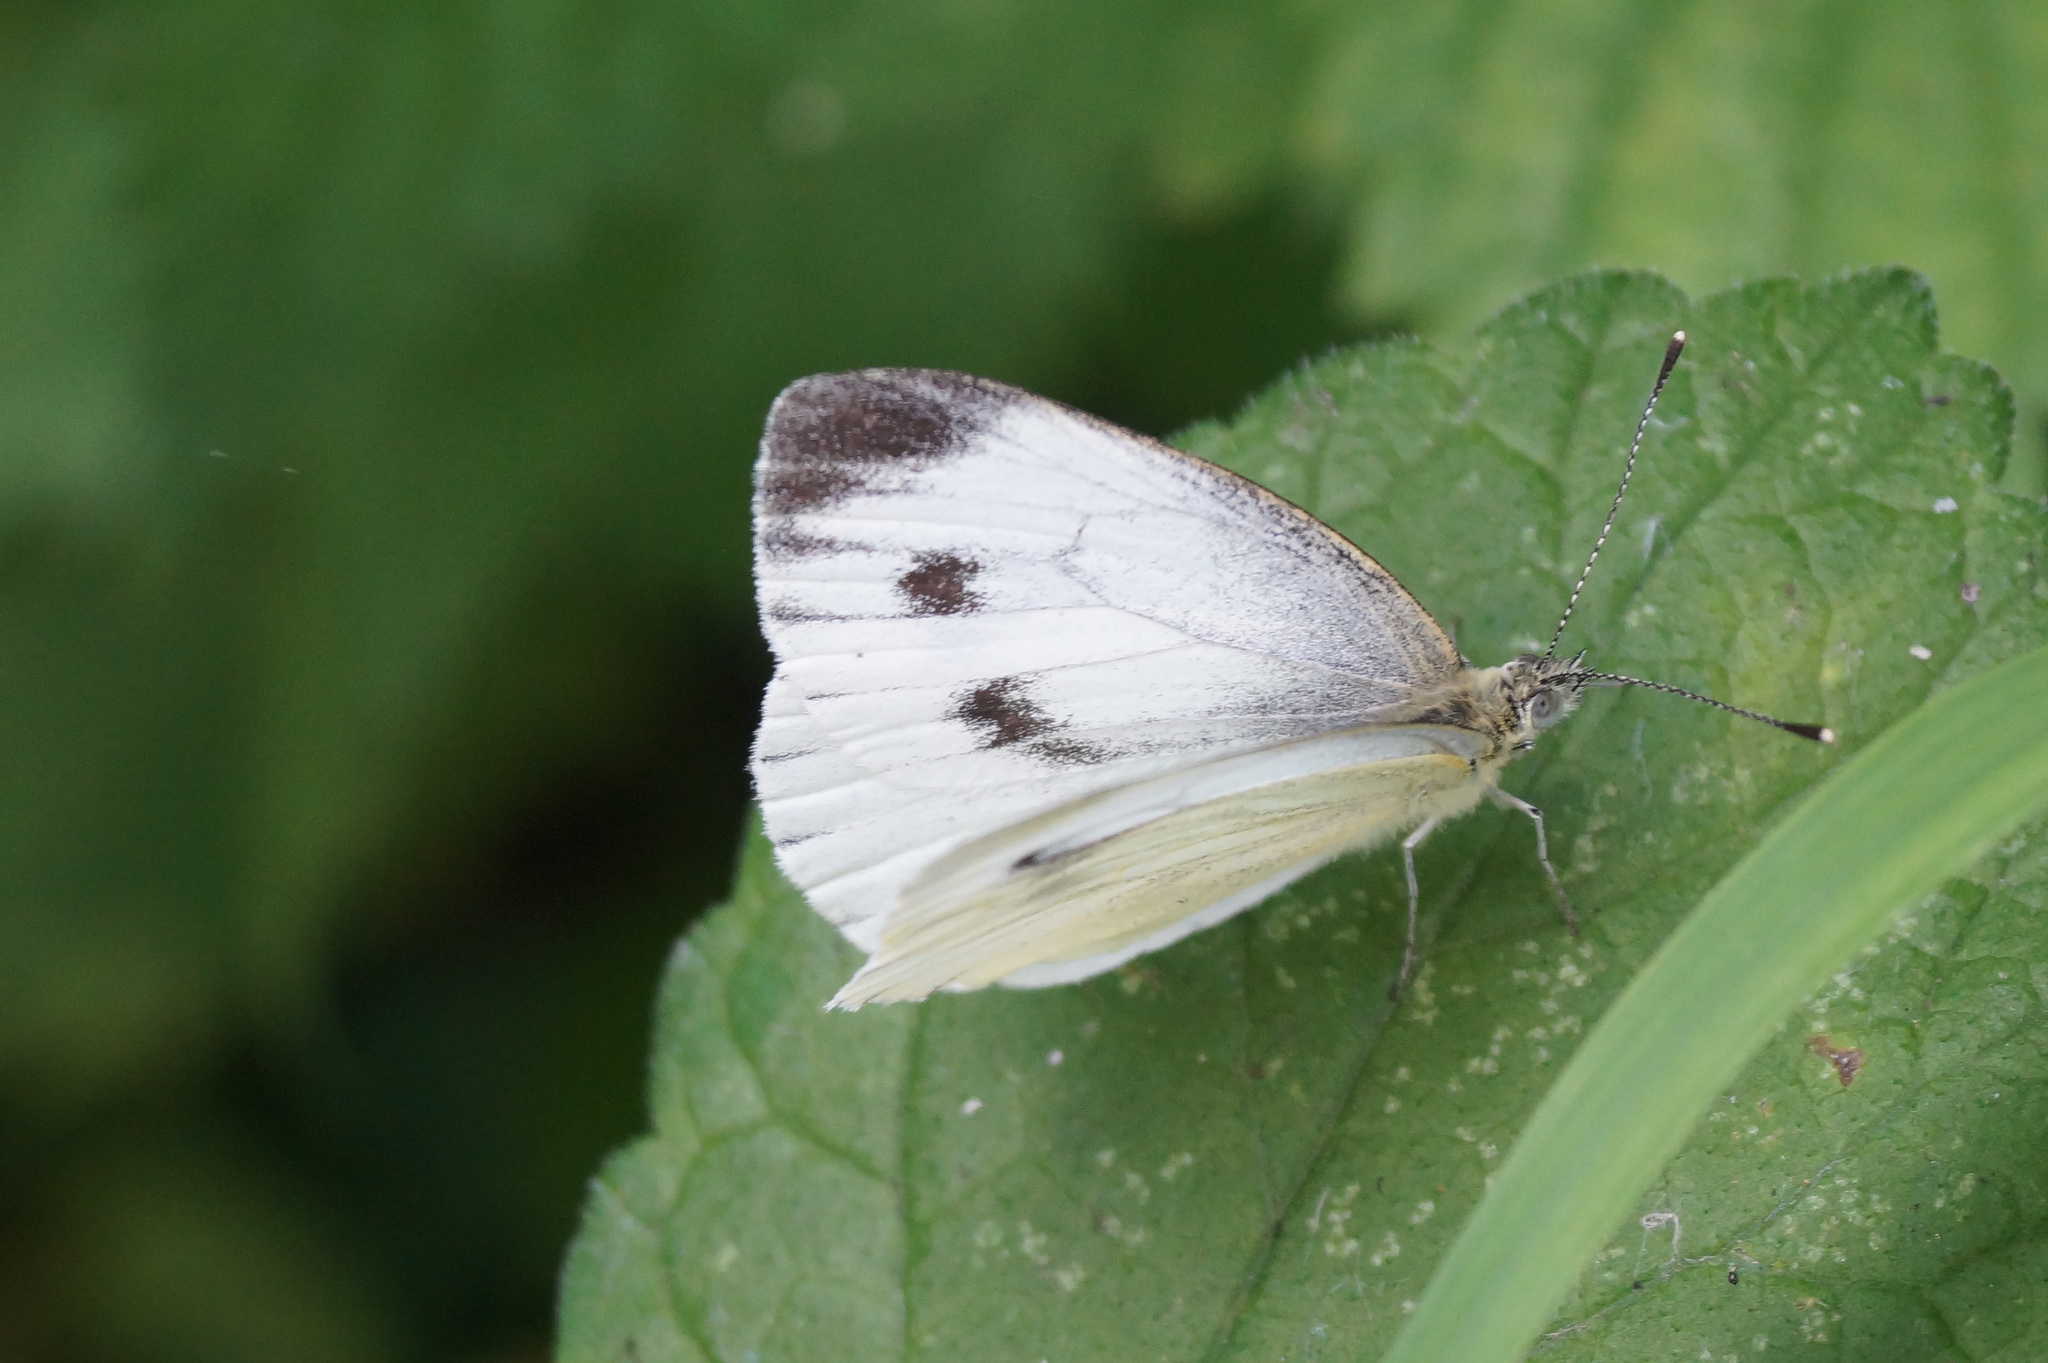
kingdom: Animalia
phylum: Arthropoda
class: Insecta
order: Lepidoptera
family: Pieridae
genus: Pieris
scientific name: Pieris napi
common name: Green-veined white
